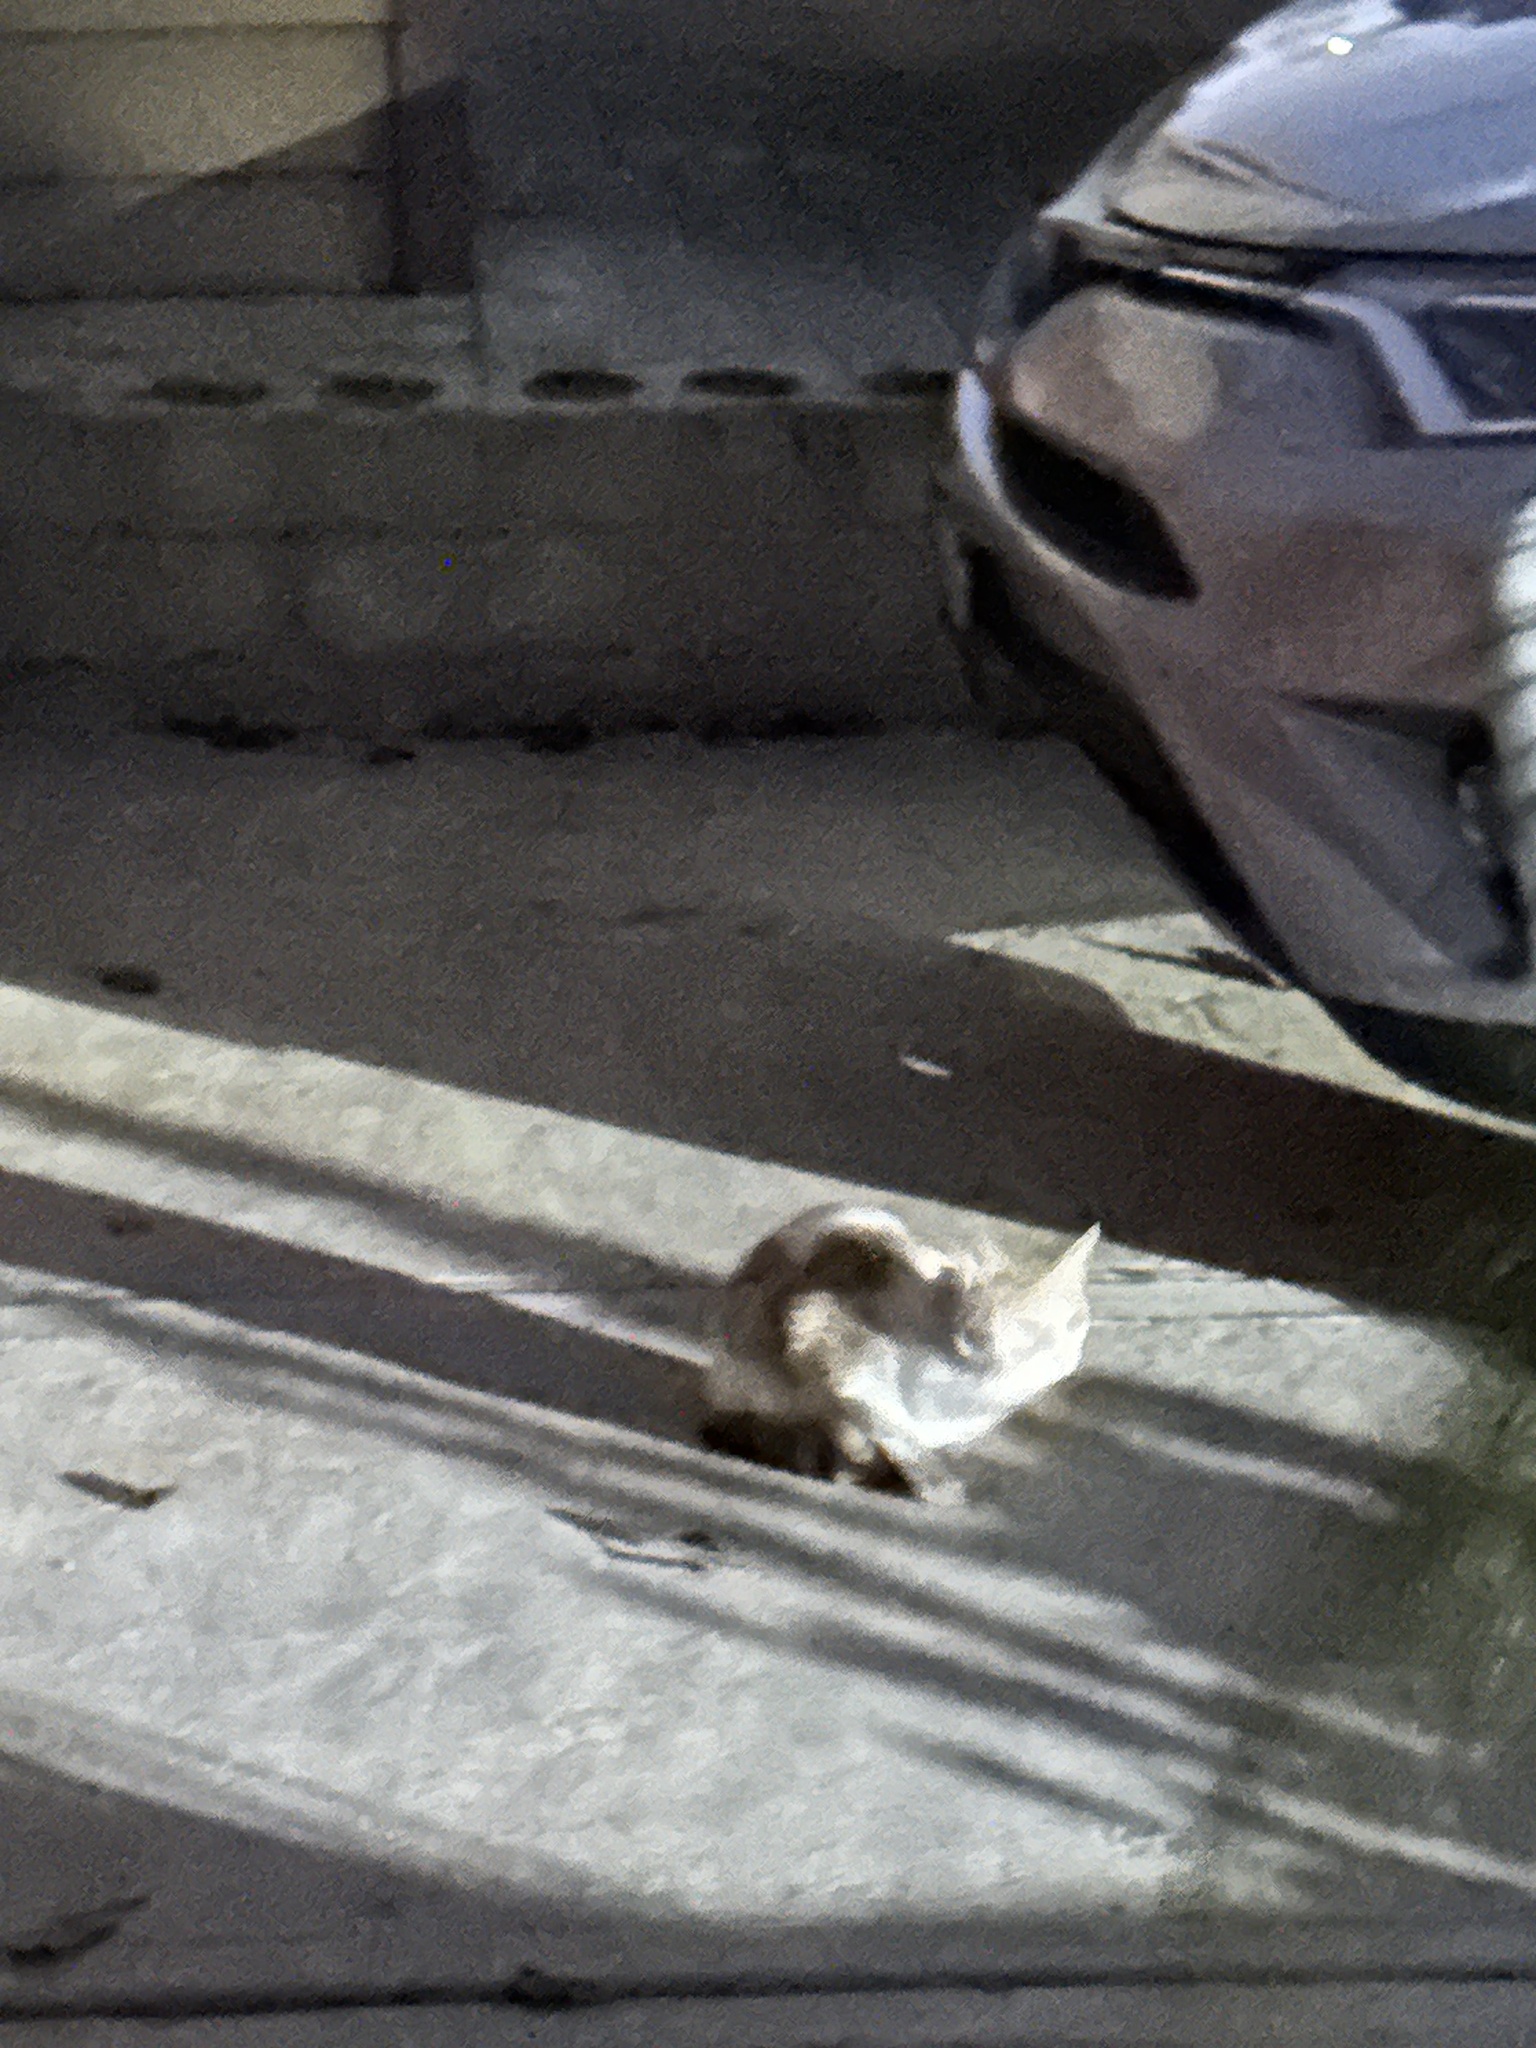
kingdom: Animalia
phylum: Chordata
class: Mammalia
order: Carnivora
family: Felidae
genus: Felis
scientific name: Felis catus
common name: Domestic cat
